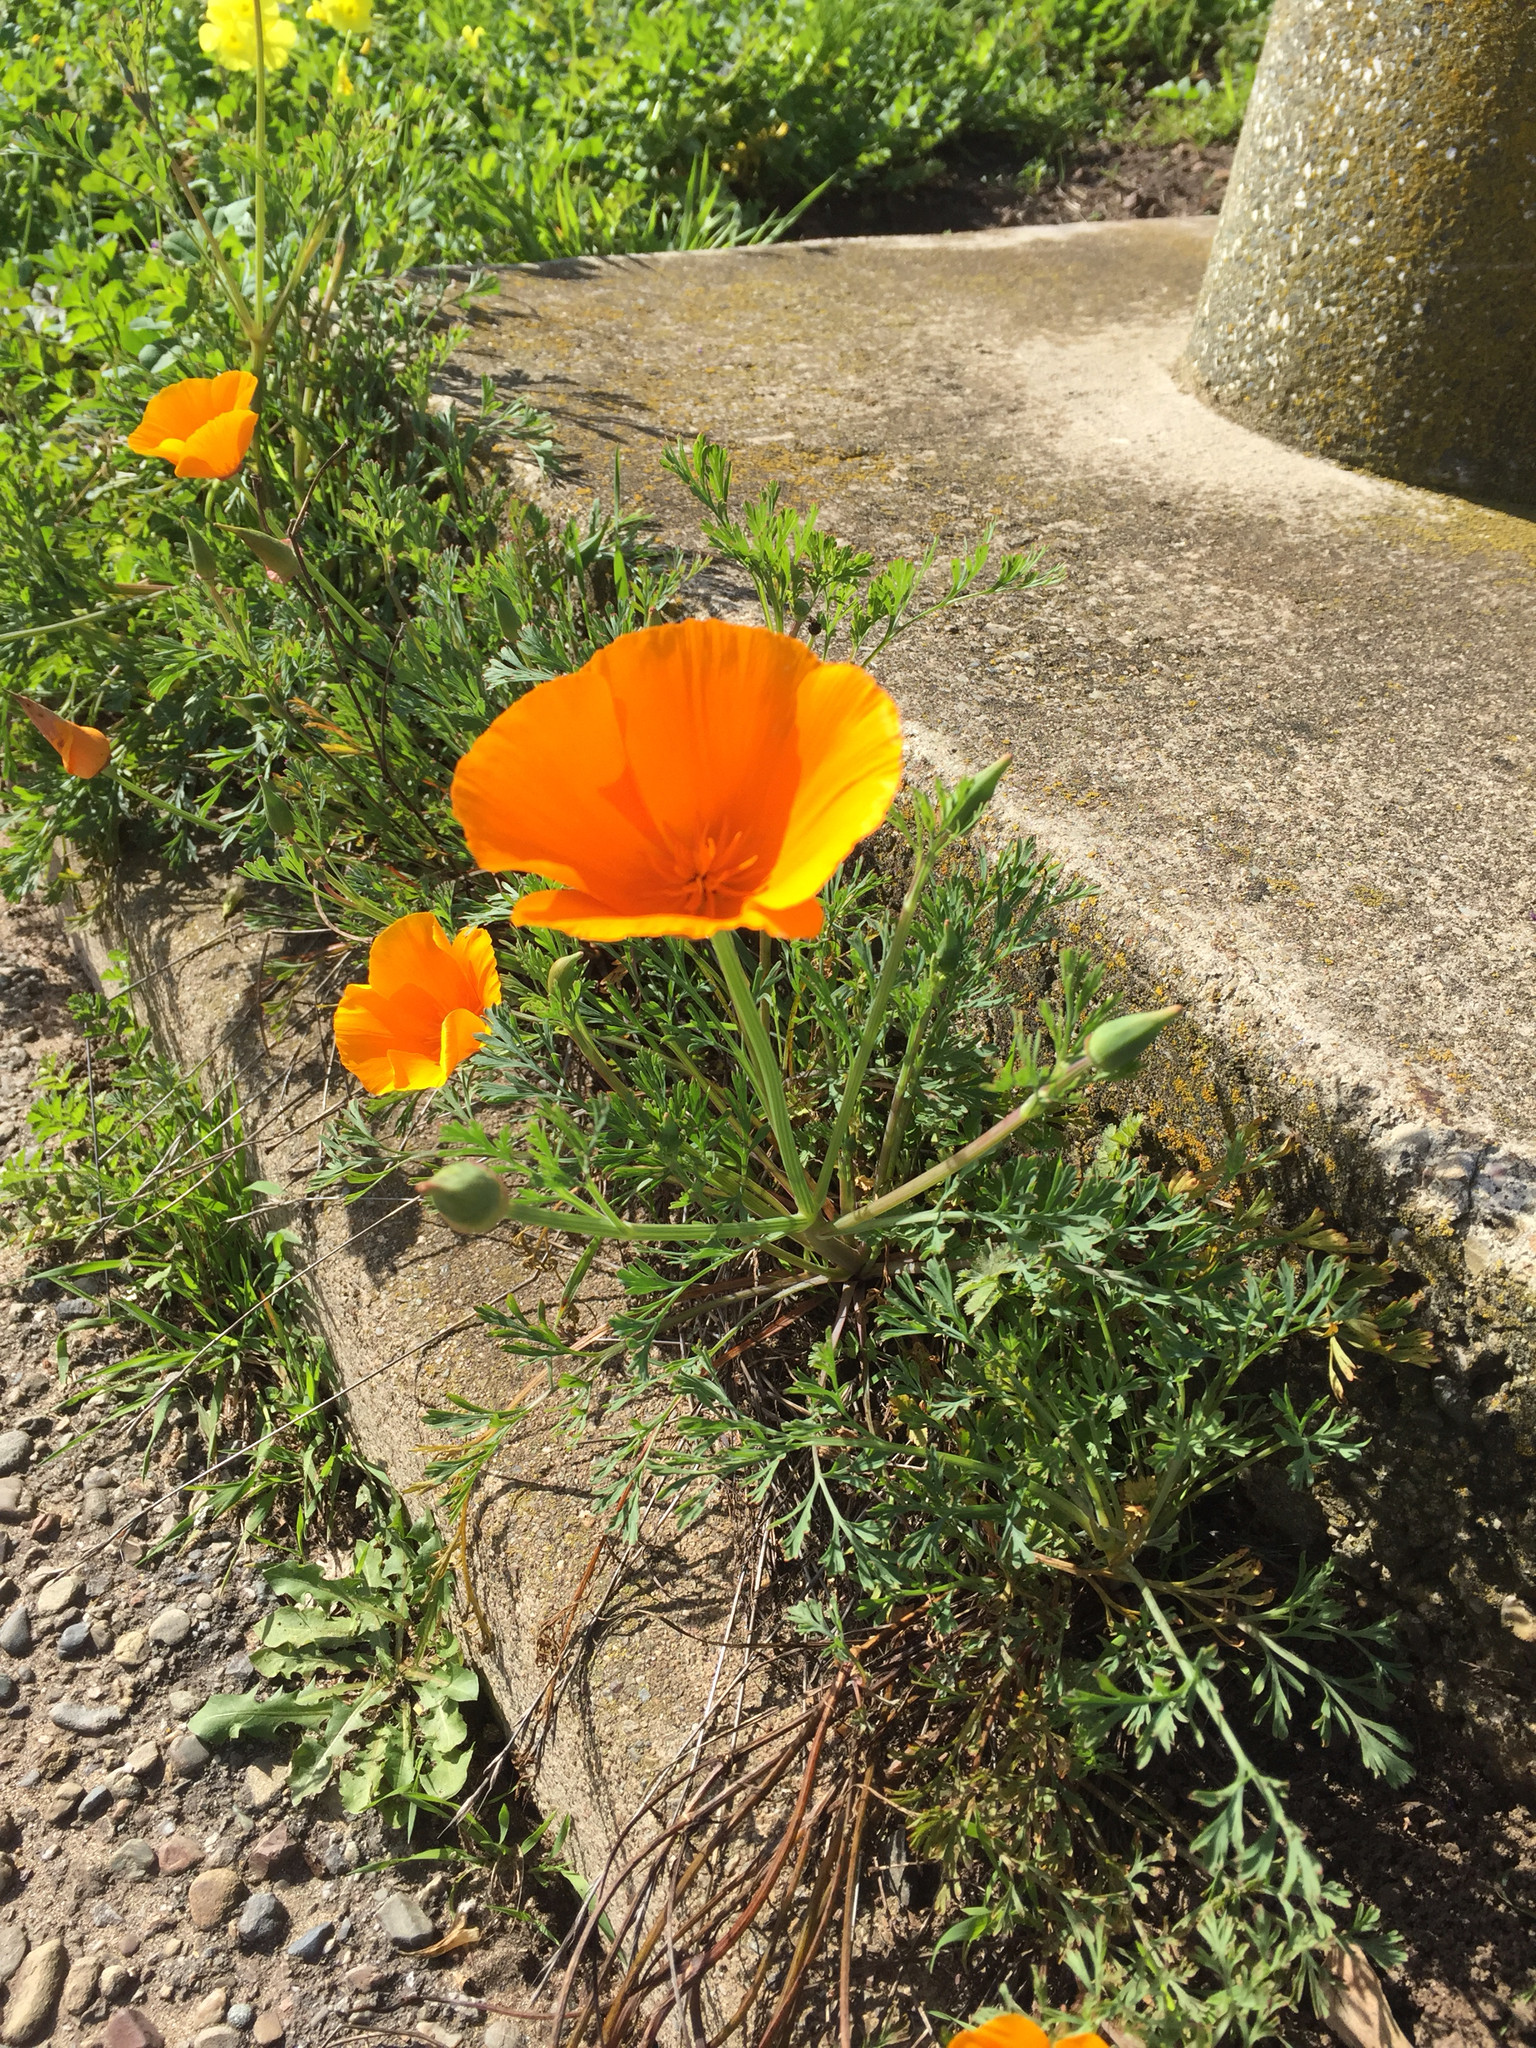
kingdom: Plantae
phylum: Tracheophyta
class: Magnoliopsida
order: Ranunculales
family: Papaveraceae
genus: Eschscholzia
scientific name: Eschscholzia californica
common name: California poppy
